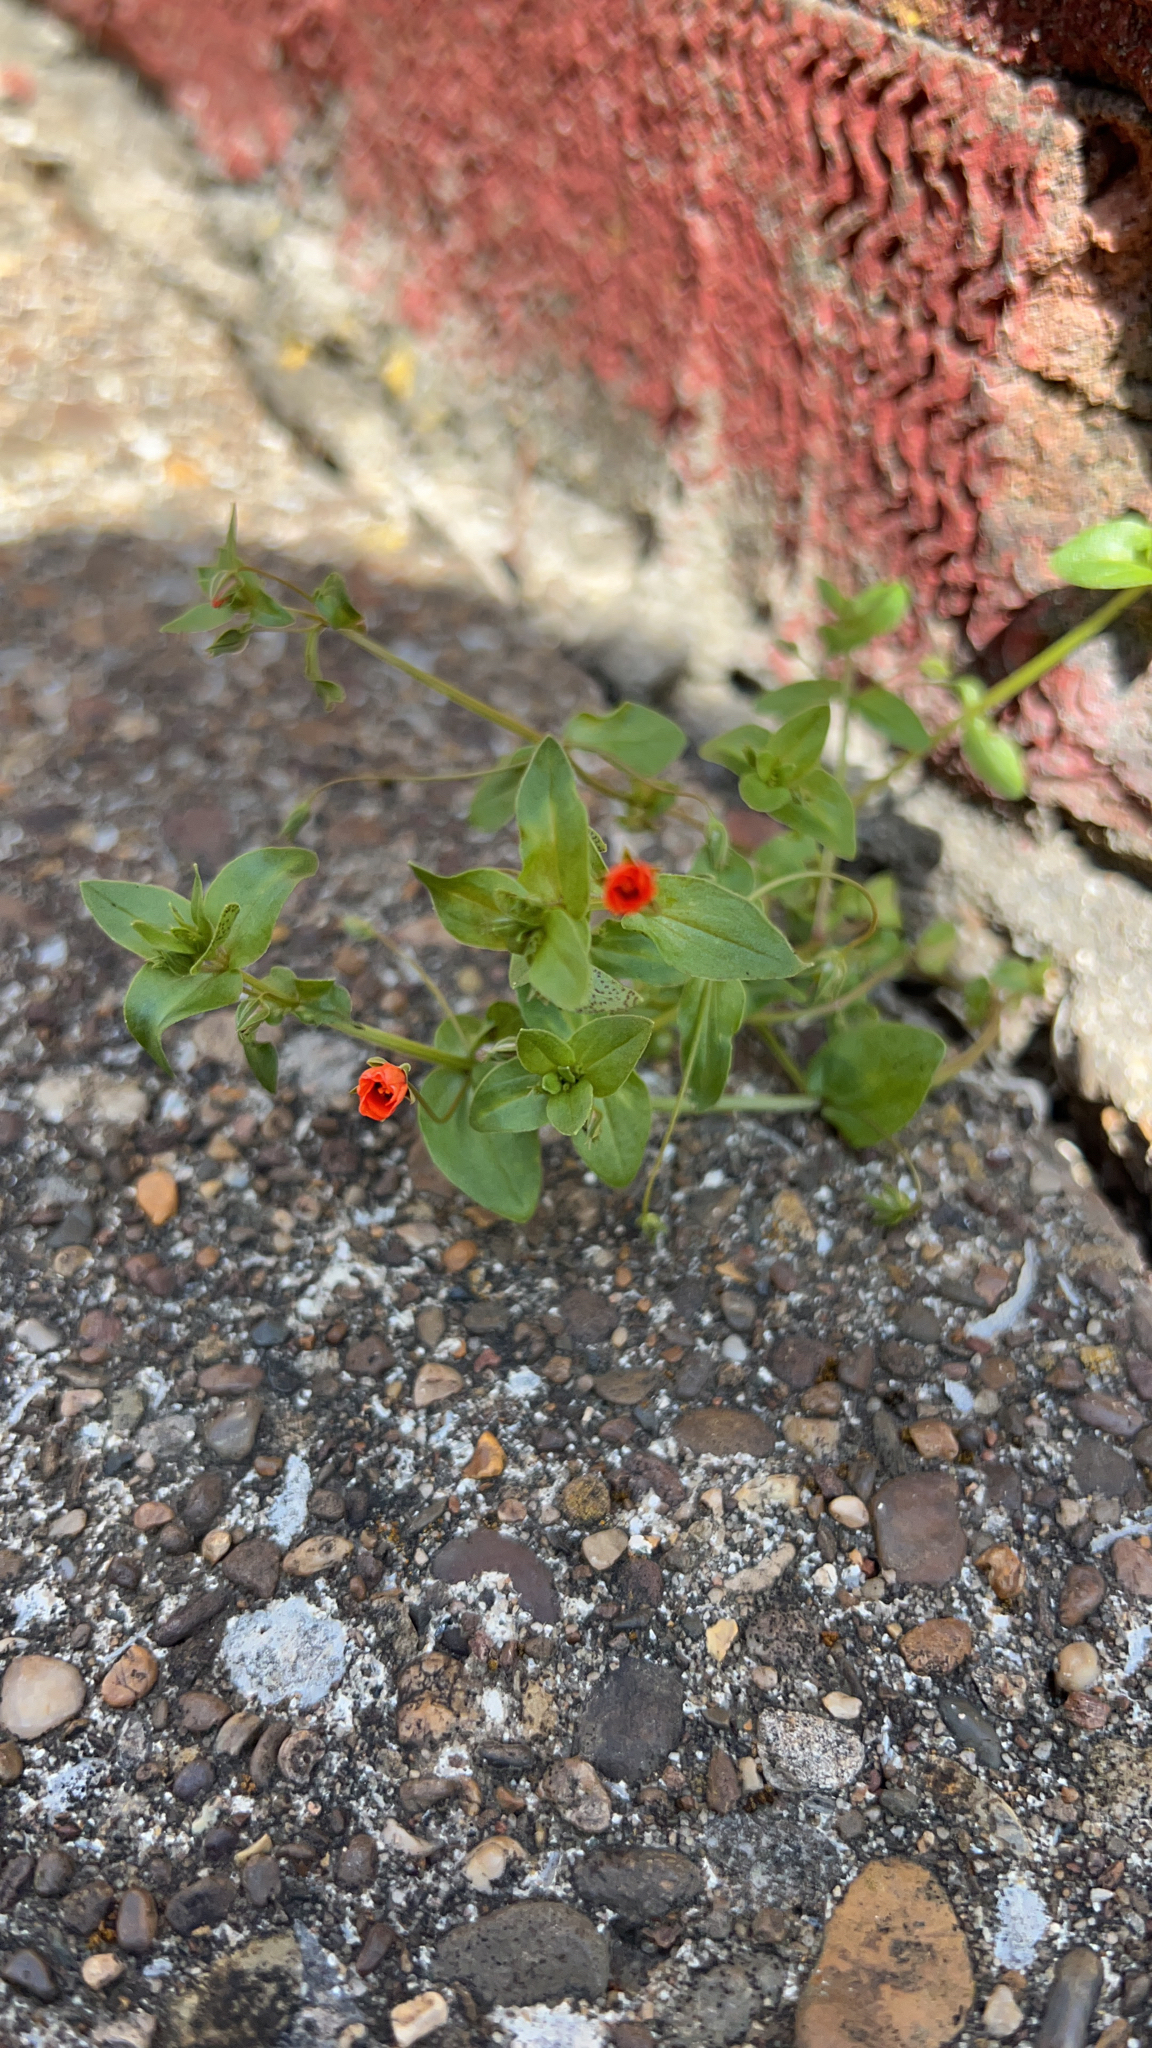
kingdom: Plantae
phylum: Tracheophyta
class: Magnoliopsida
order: Ericales
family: Primulaceae
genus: Lysimachia
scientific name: Lysimachia arvensis
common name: Scarlet pimpernel
